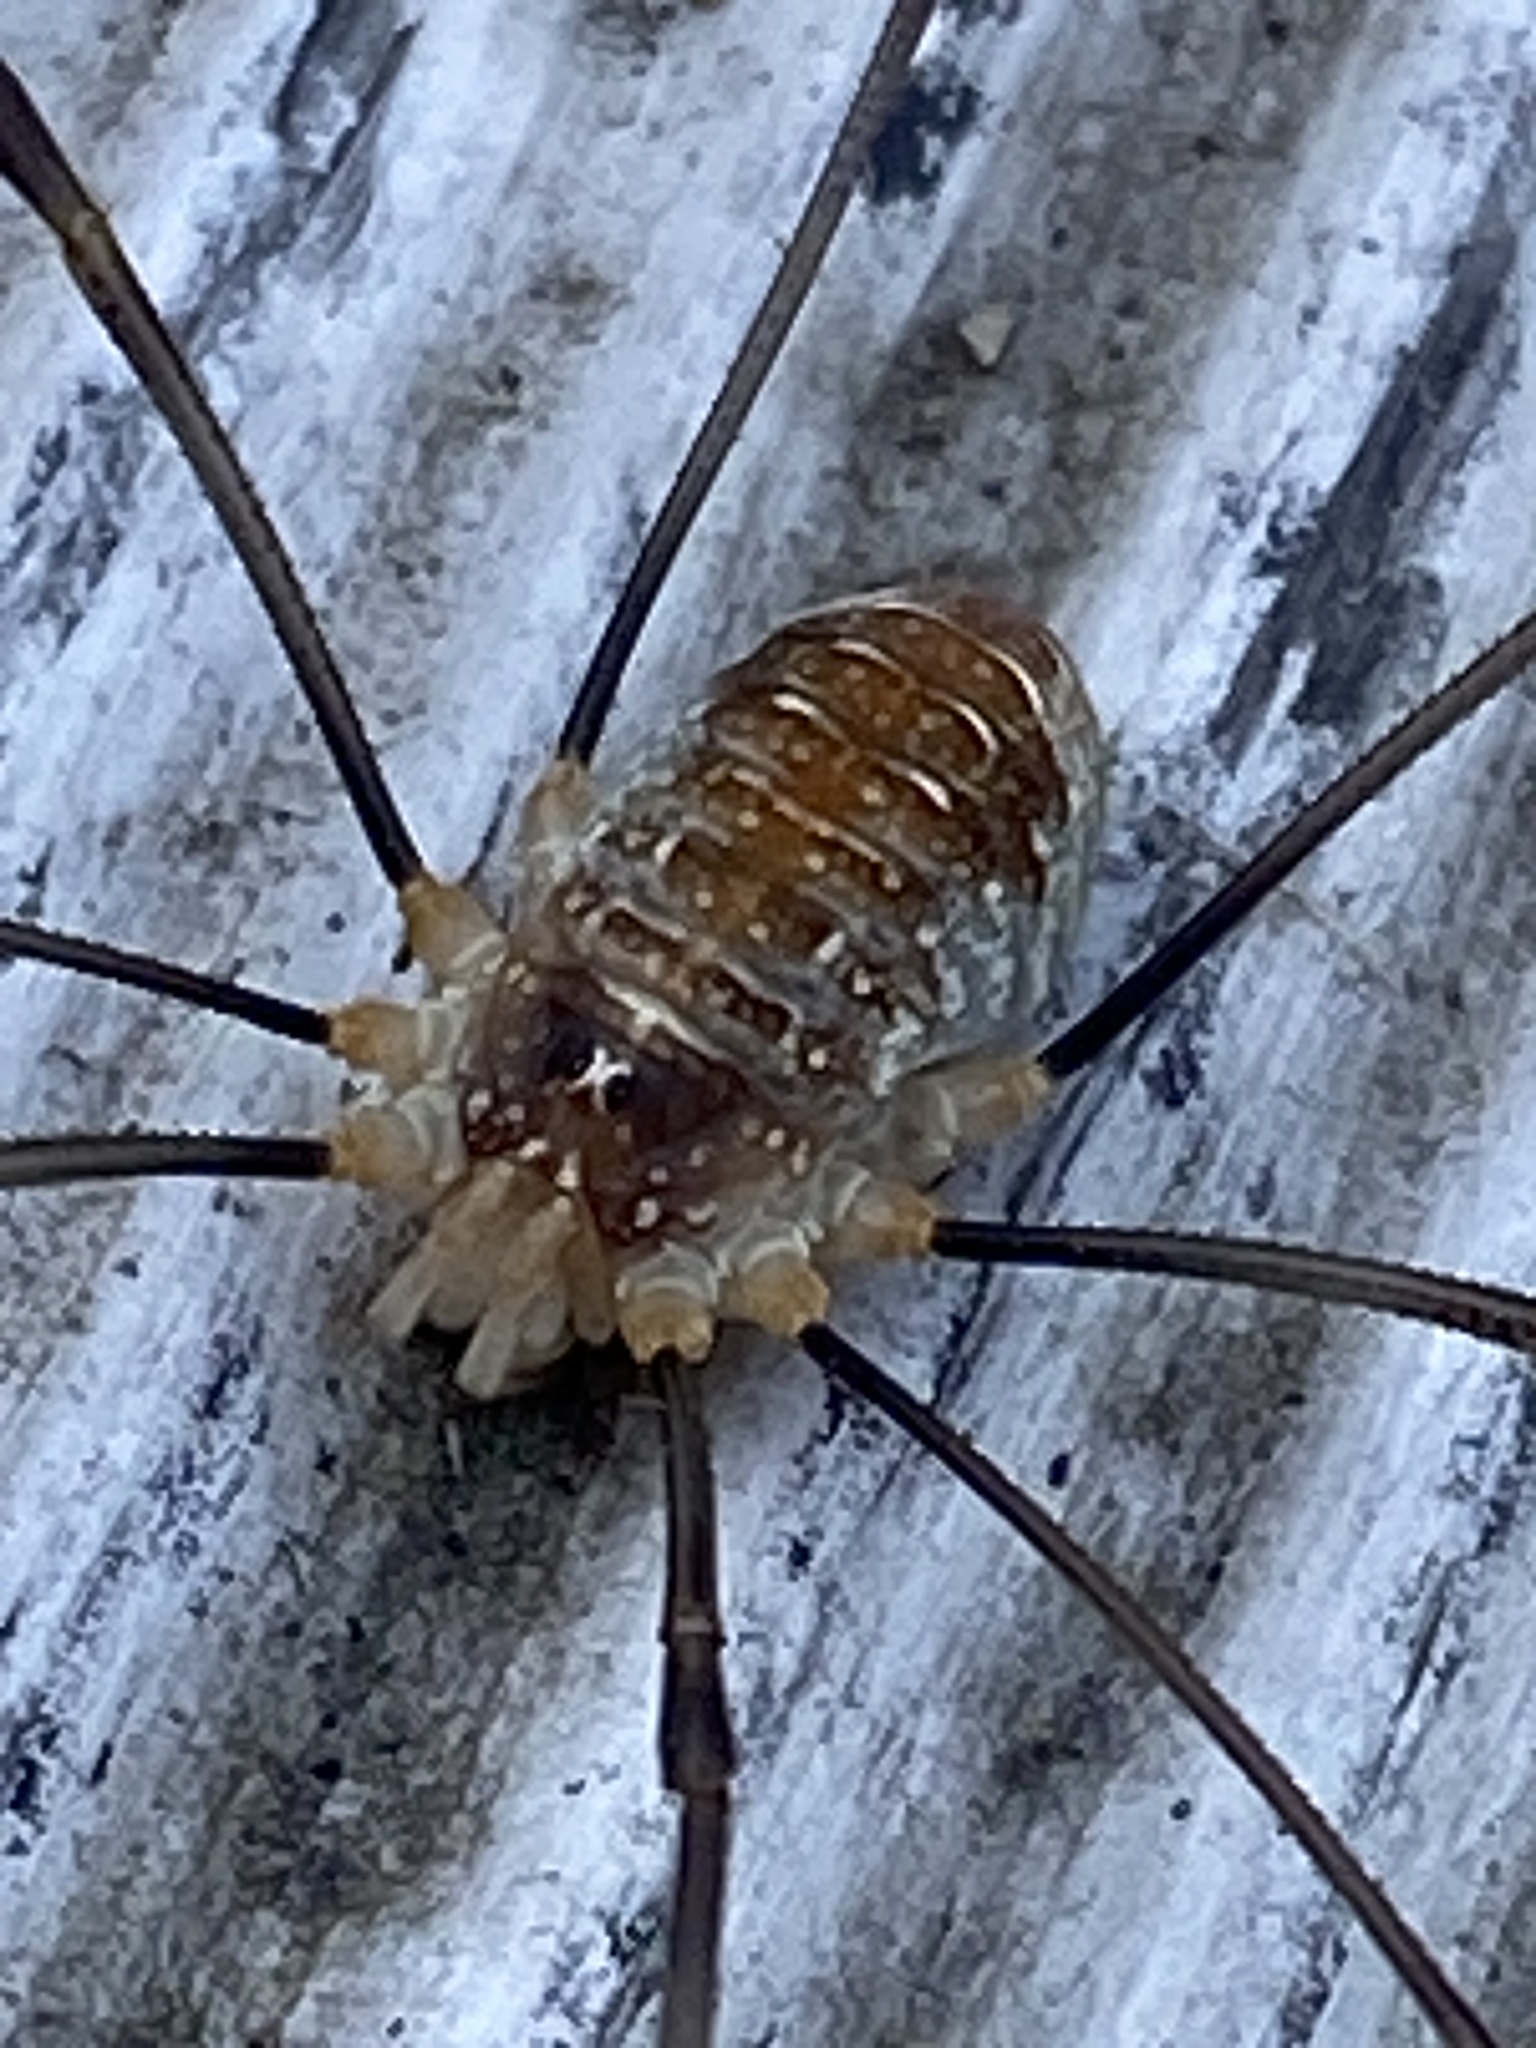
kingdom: Animalia
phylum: Arthropoda
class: Arachnida
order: Opiliones
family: Phalangiidae
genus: Opilio
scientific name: Opilio canestrinii
